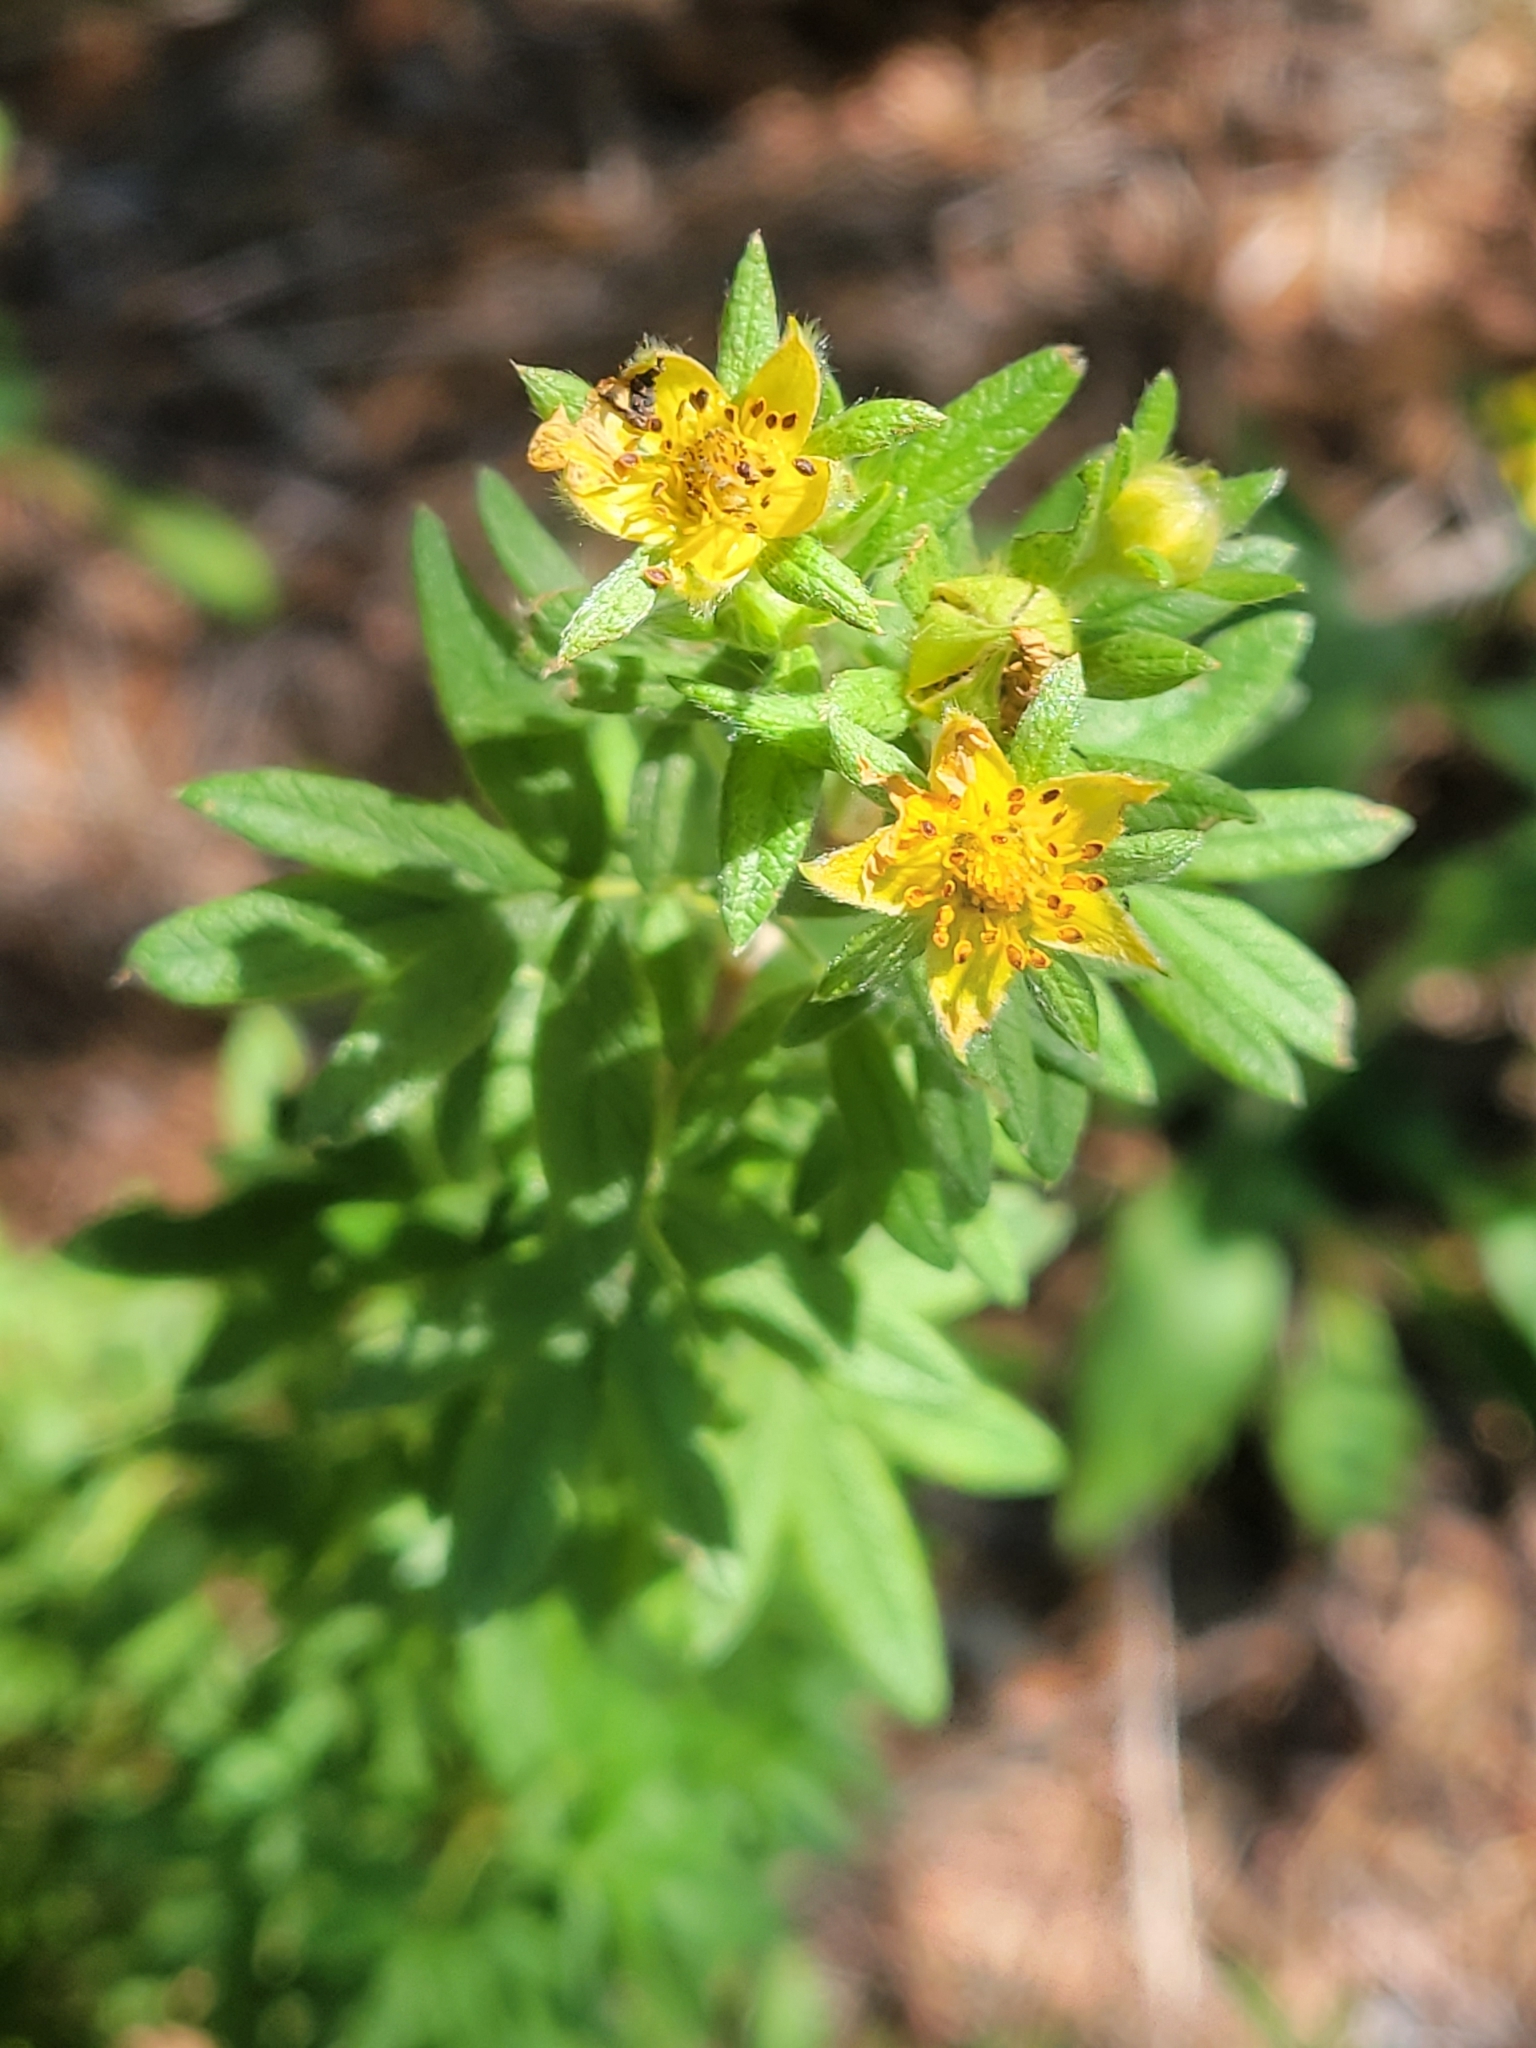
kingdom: Plantae
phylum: Tracheophyta
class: Magnoliopsida
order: Rosales
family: Rosaceae
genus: Dasiphora
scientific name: Dasiphora fruticosa
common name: Shrubby cinquefoil
